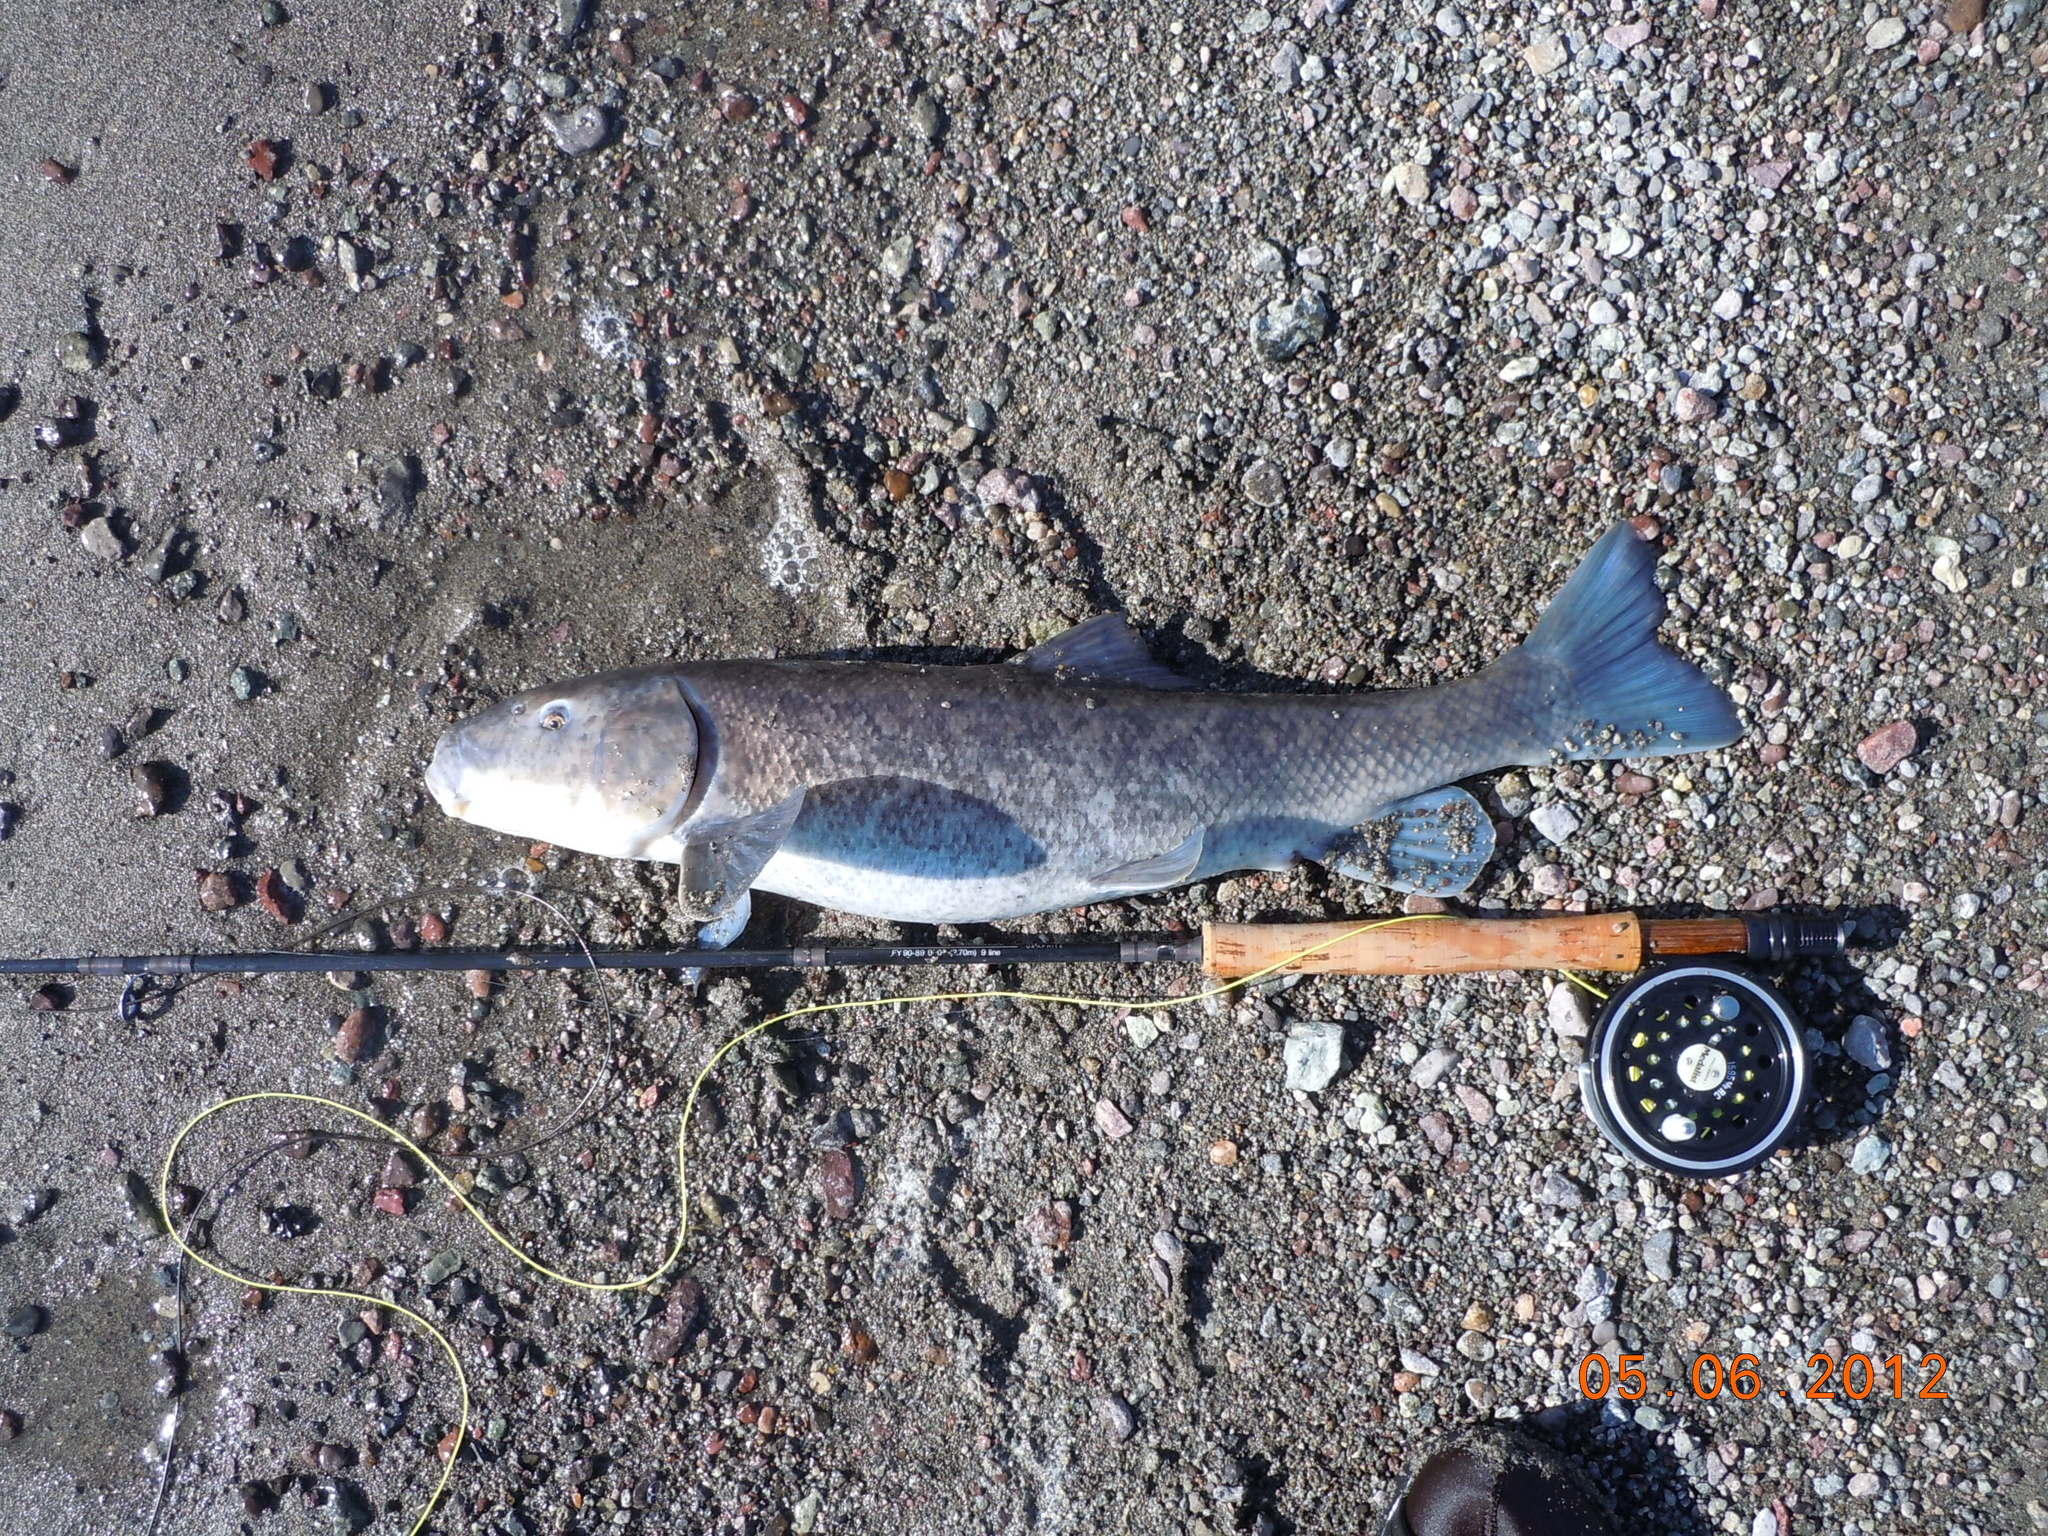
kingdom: Animalia
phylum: Chordata
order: Cypriniformes
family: Catostomidae
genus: Chasmistes
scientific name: Chasmistes cujus
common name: Cui-ui
